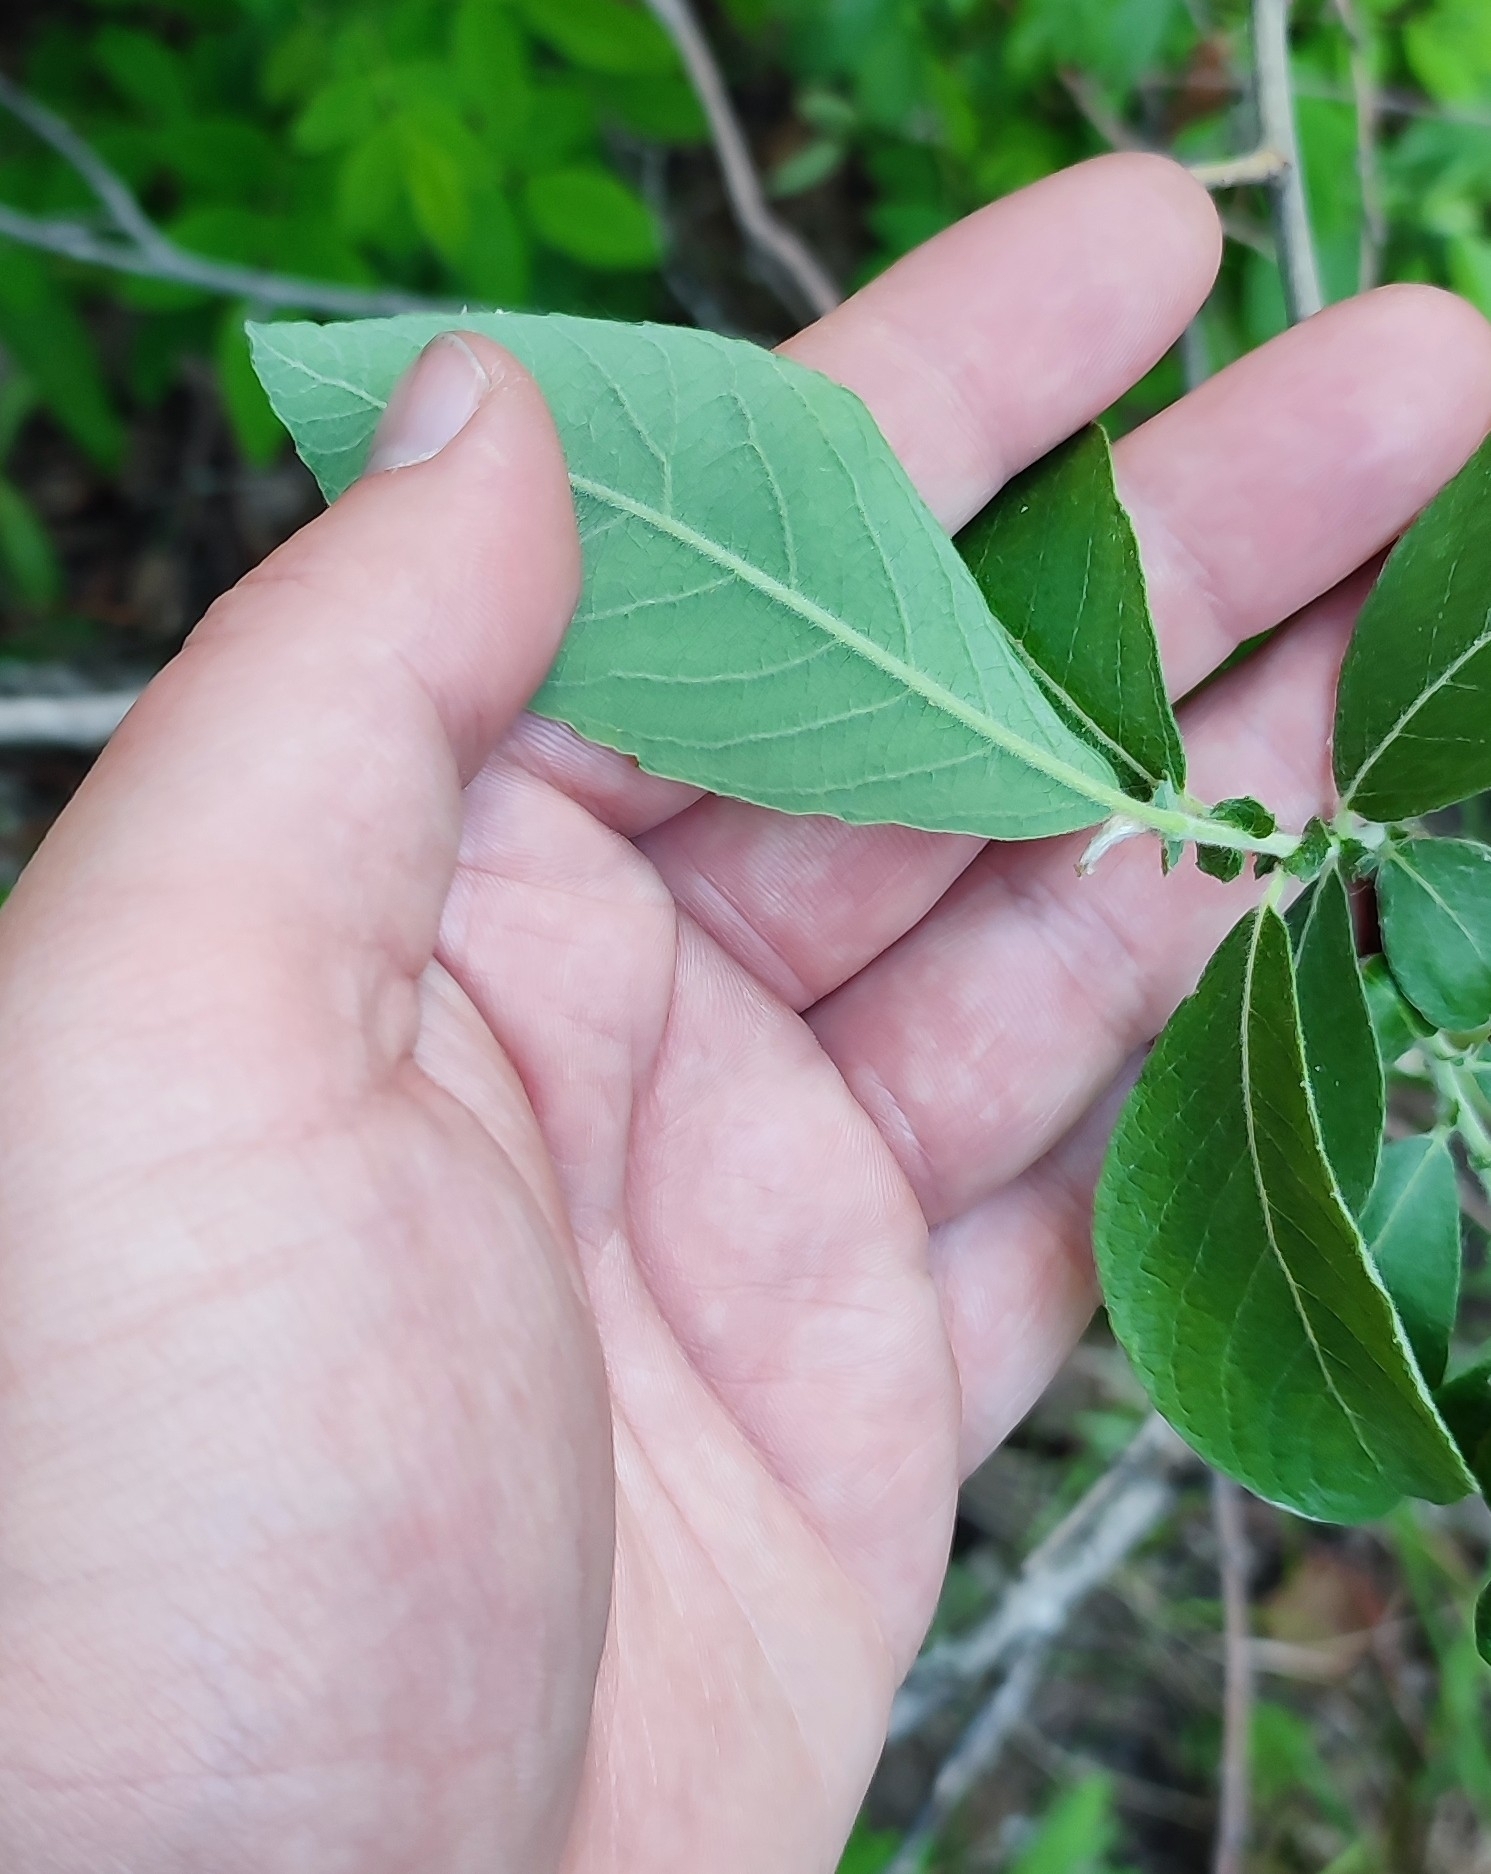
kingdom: Plantae
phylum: Tracheophyta
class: Magnoliopsida
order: Malpighiales
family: Salicaceae
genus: Salix
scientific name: Salix cinerea
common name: Common sallow
